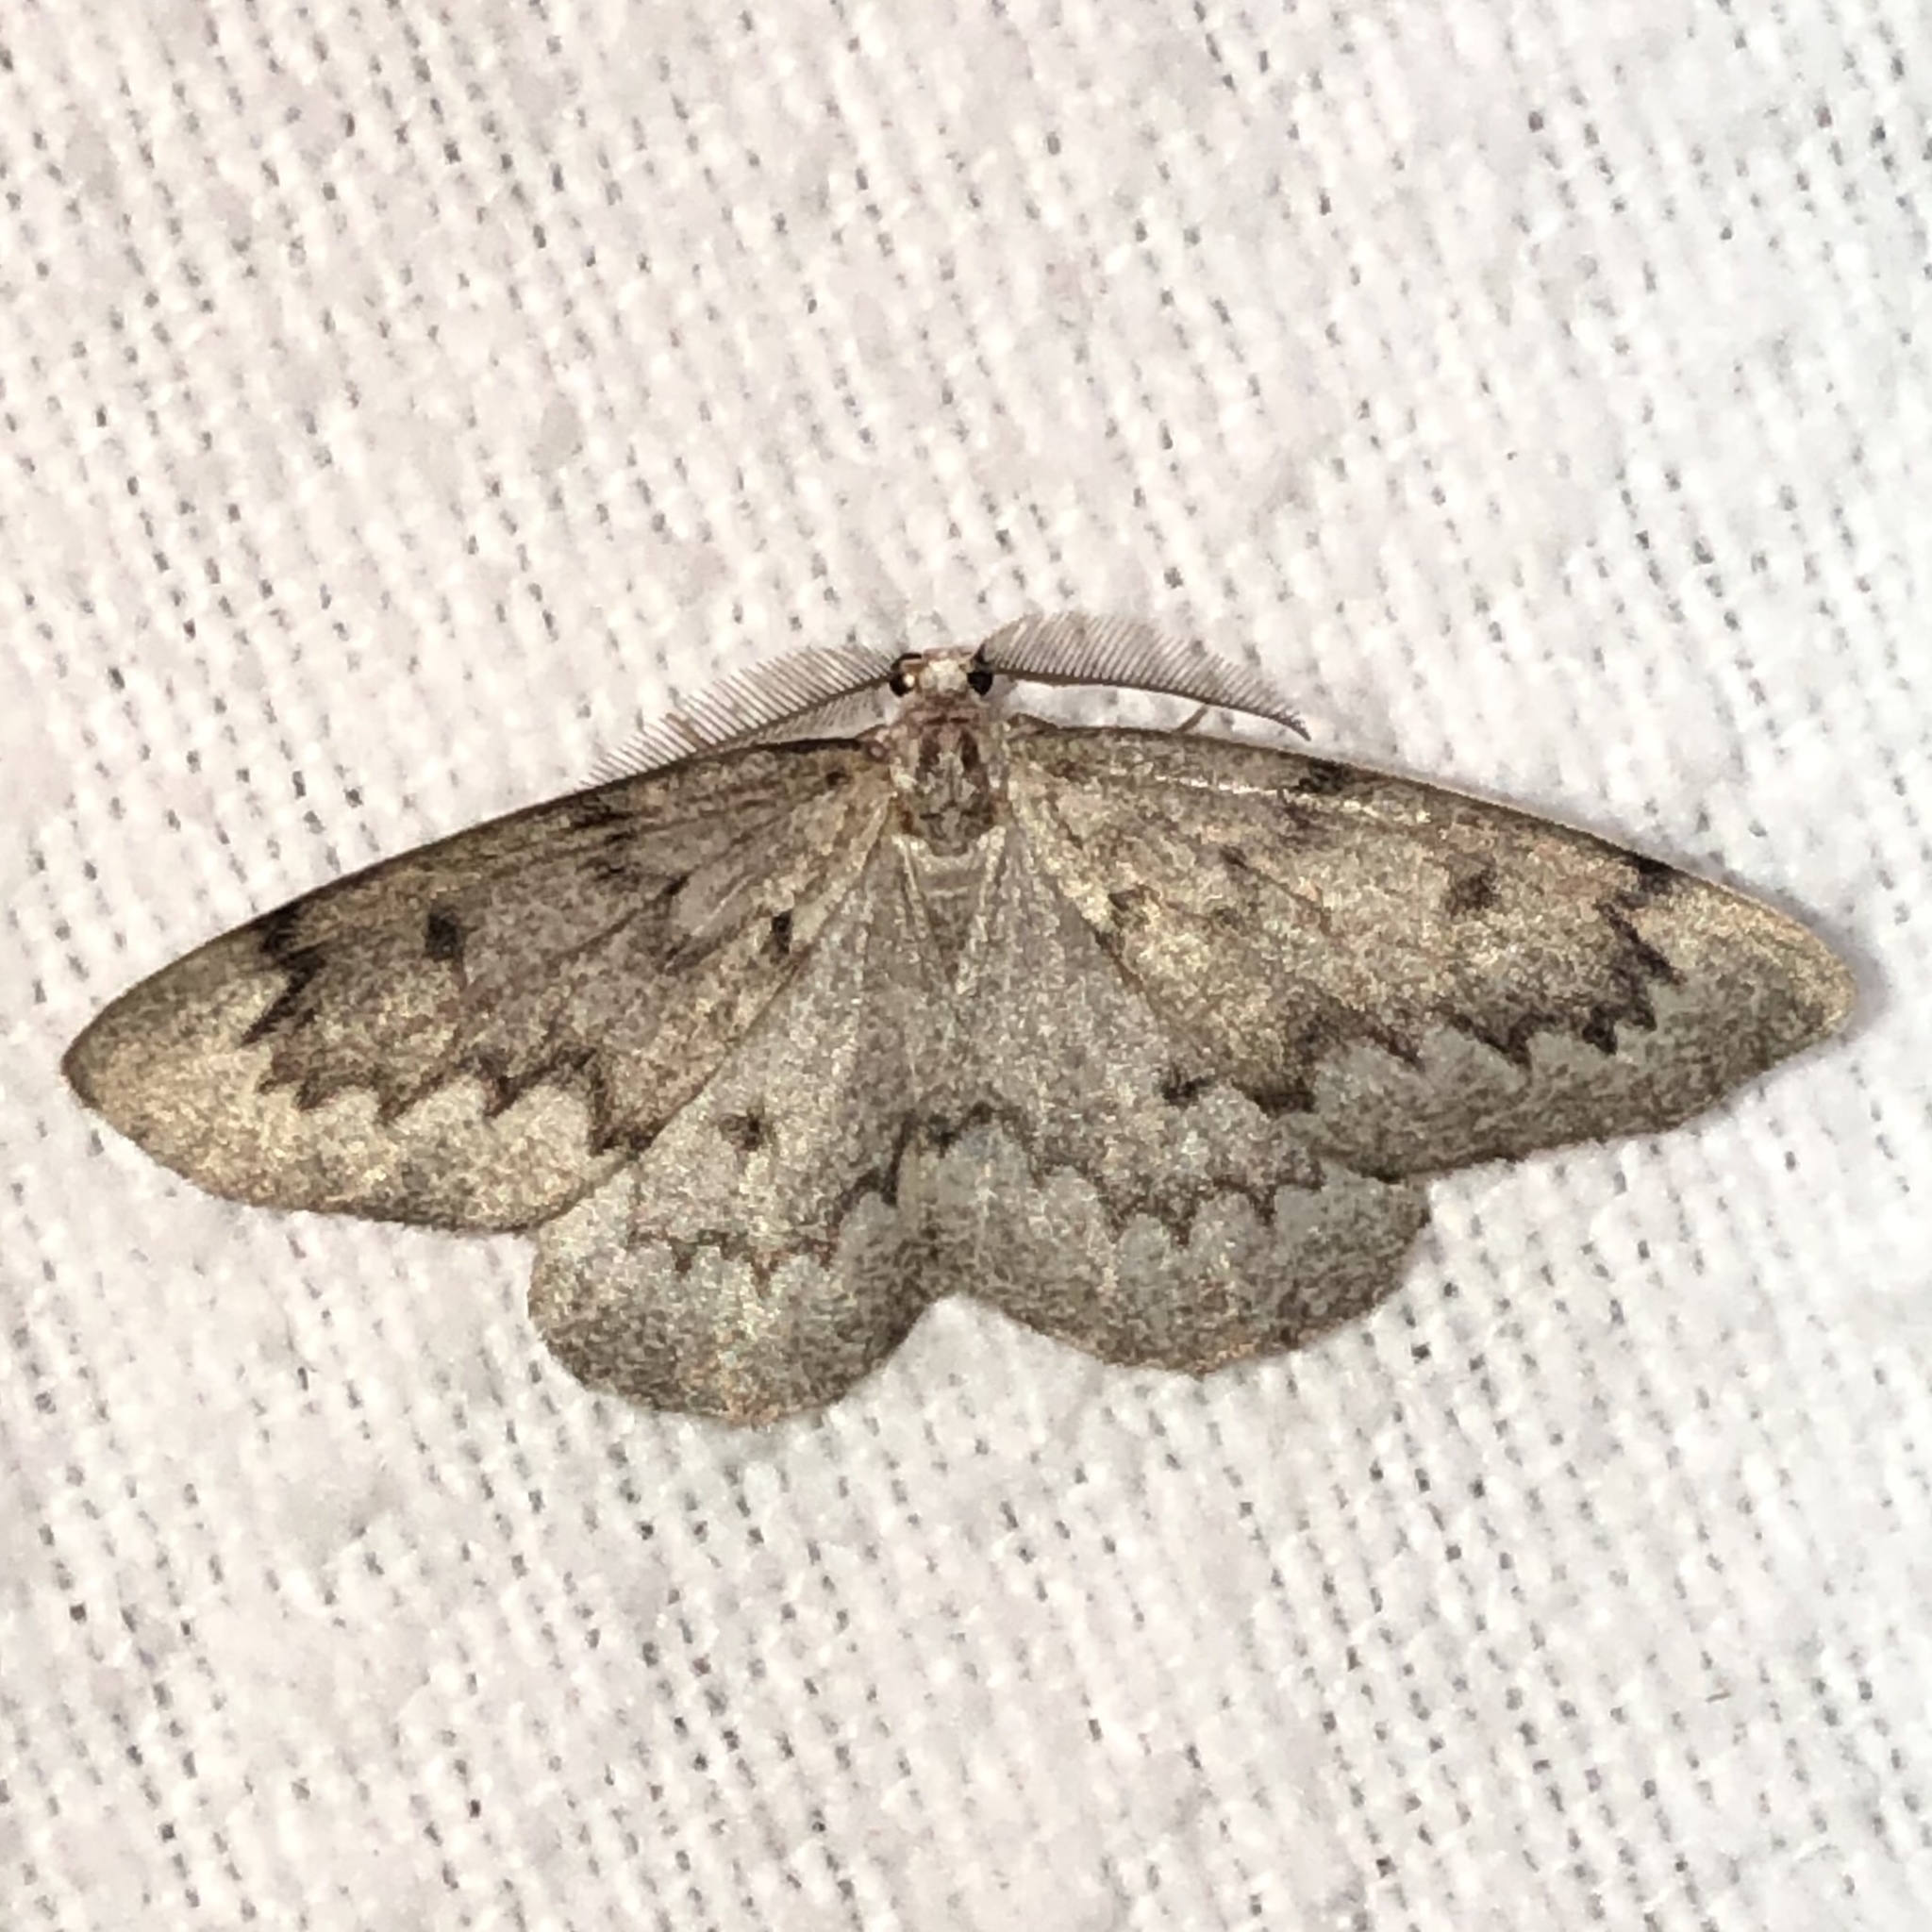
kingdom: Animalia
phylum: Arthropoda
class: Insecta
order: Lepidoptera
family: Geometridae
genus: Nepytia
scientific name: Nepytia canosaria
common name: False hemlock looper
